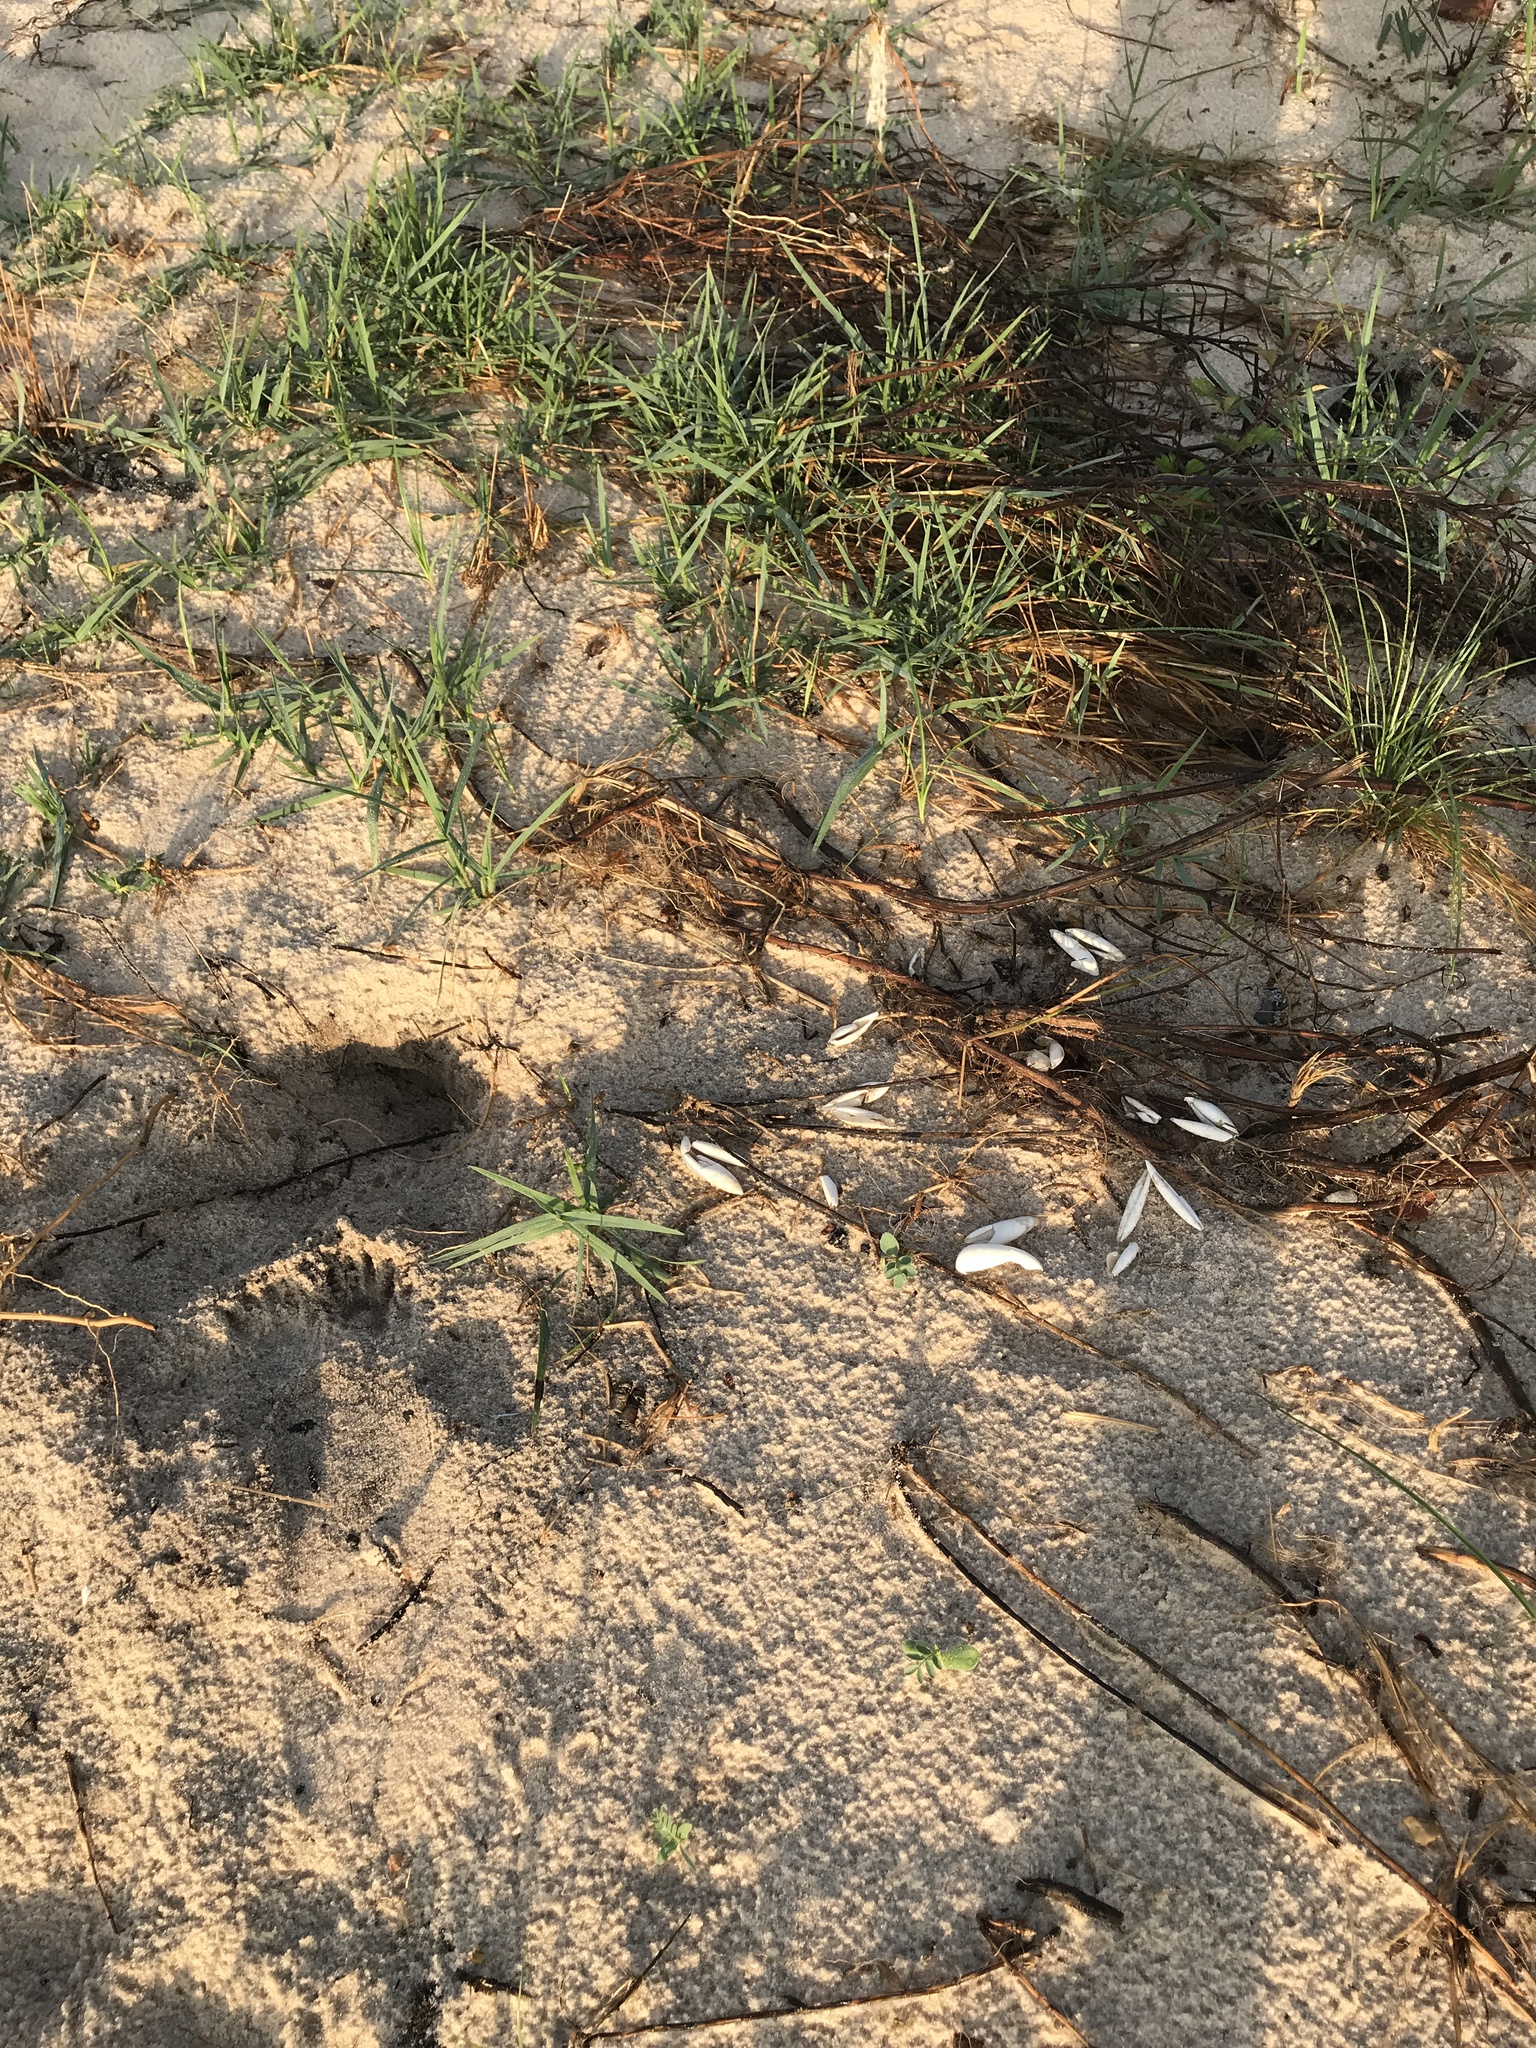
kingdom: Animalia
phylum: Chordata
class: Testudines
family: Emydidae
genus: Malaclemys
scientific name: Malaclemys terrapin
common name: Diamondback terrapin
